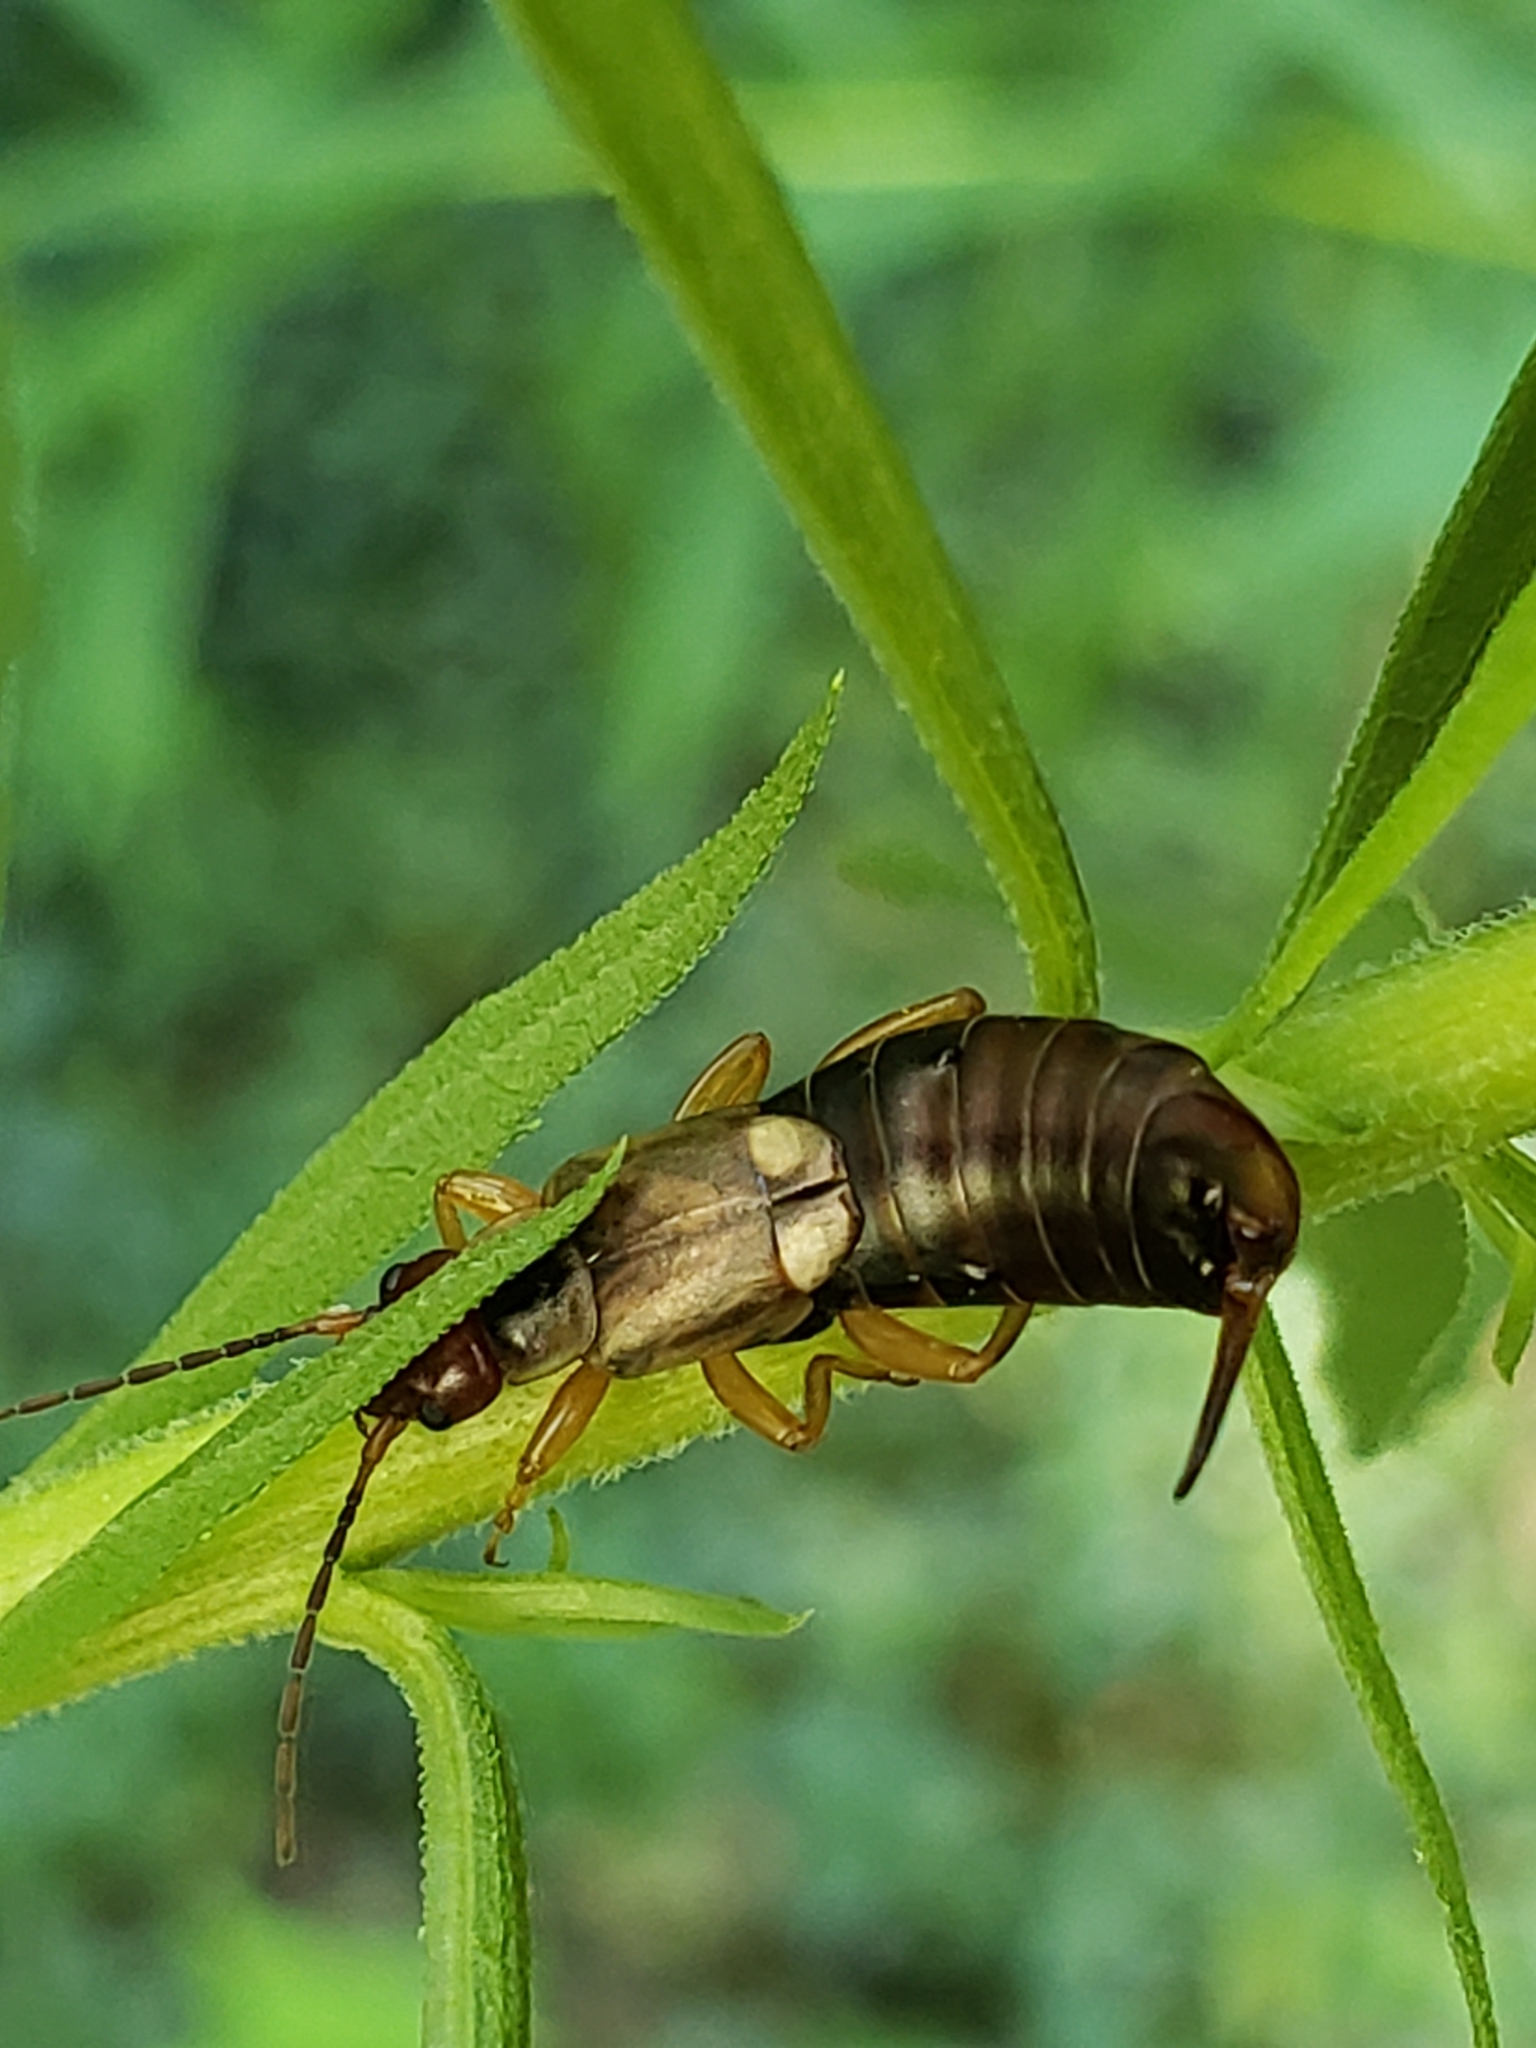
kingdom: Animalia
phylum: Arthropoda
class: Insecta
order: Dermaptera
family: Forficulidae
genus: Forficula
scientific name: Forficula
